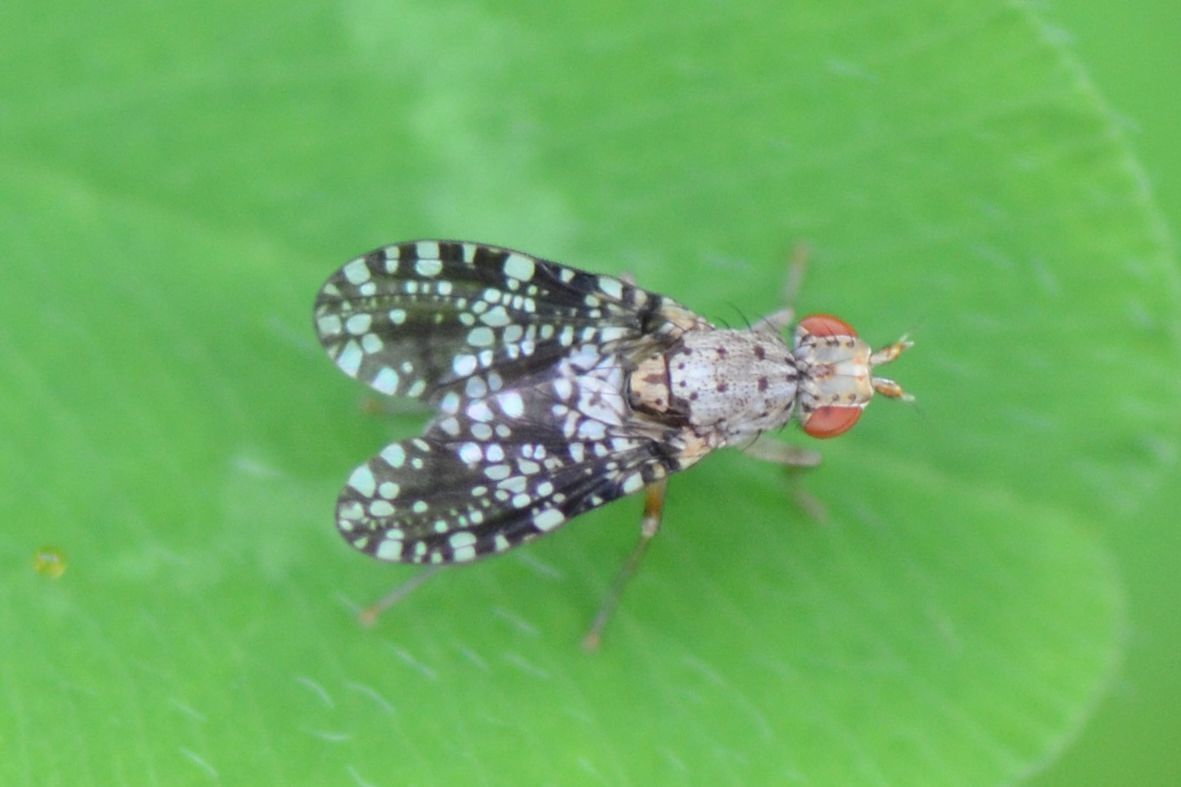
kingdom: Animalia
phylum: Arthropoda
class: Insecta
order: Diptera
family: Sciomyzidae
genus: Trypetoptera
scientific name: Trypetoptera punctulata
